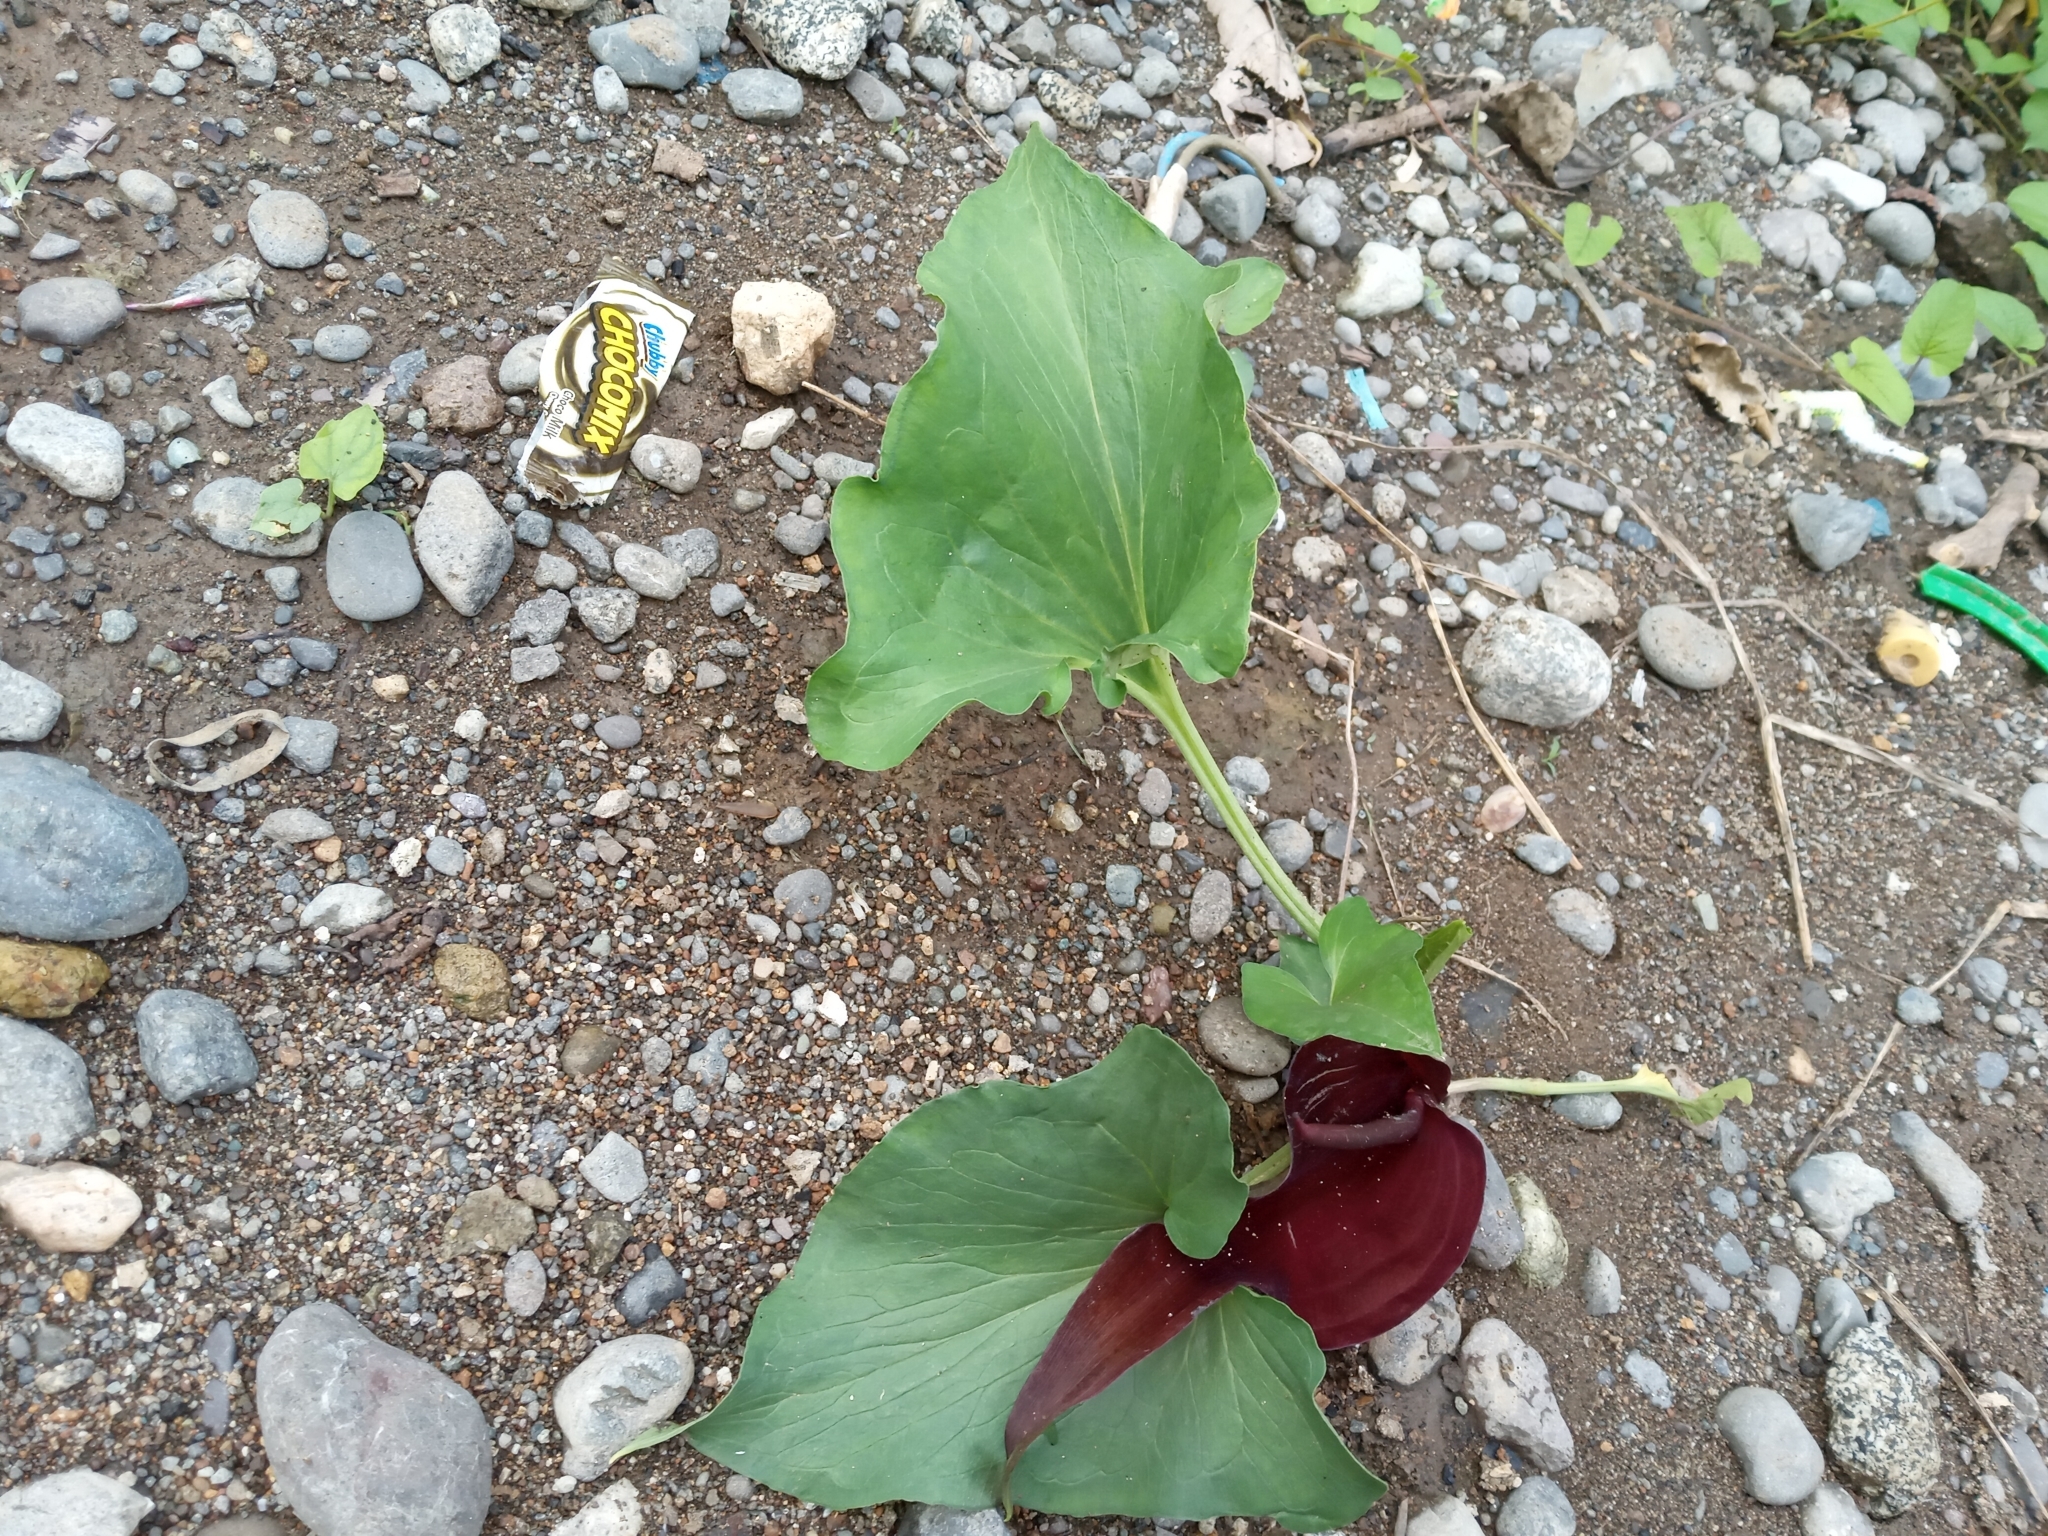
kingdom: Plantae
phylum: Tracheophyta
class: Liliopsida
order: Alismatales
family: Araceae
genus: Typhonium
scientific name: Typhonium blumei
